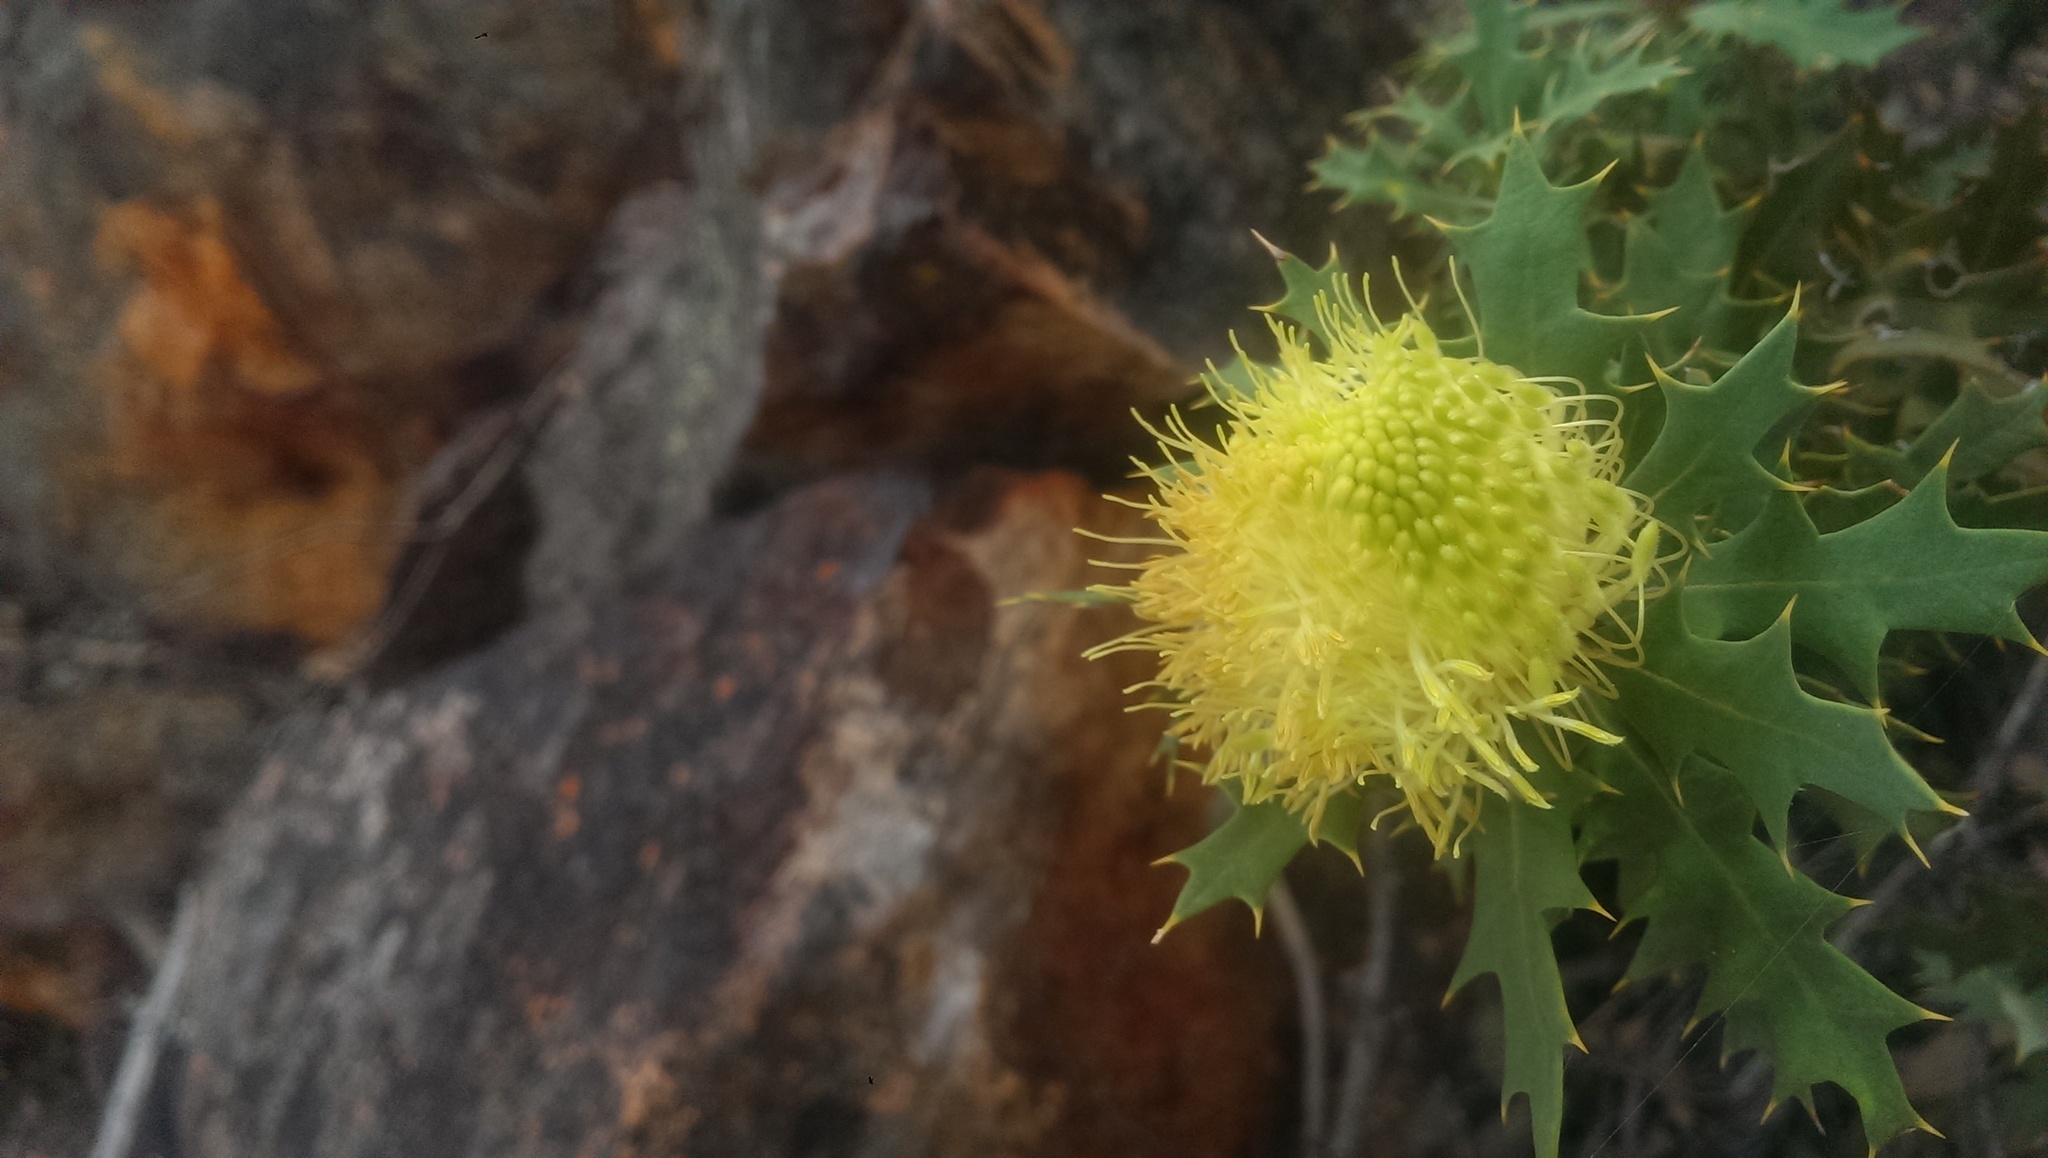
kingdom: Plantae
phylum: Tracheophyta
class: Magnoliopsida
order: Proteales
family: Proteaceae
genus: Banksia
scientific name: Banksia arborea
